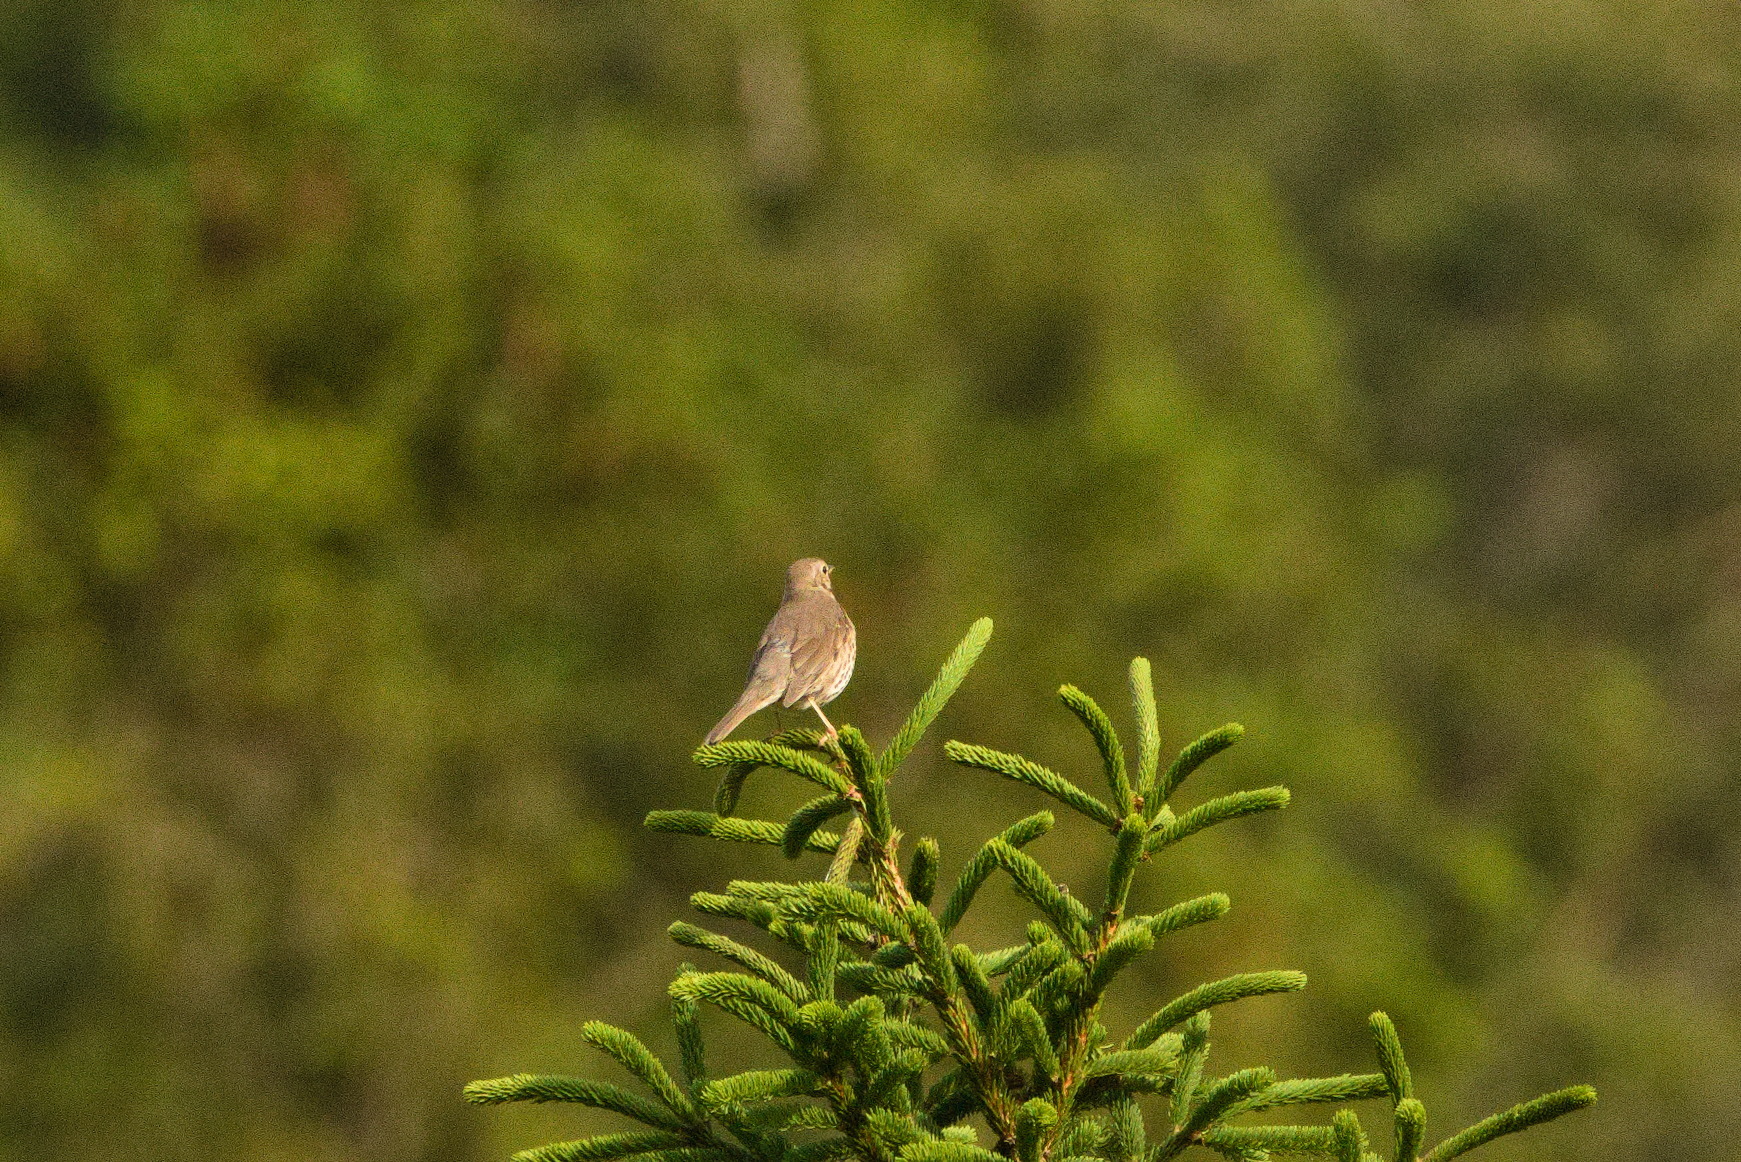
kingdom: Animalia
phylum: Chordata
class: Aves
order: Passeriformes
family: Turdidae
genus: Turdus
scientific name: Turdus philomelos
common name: Song thrush
